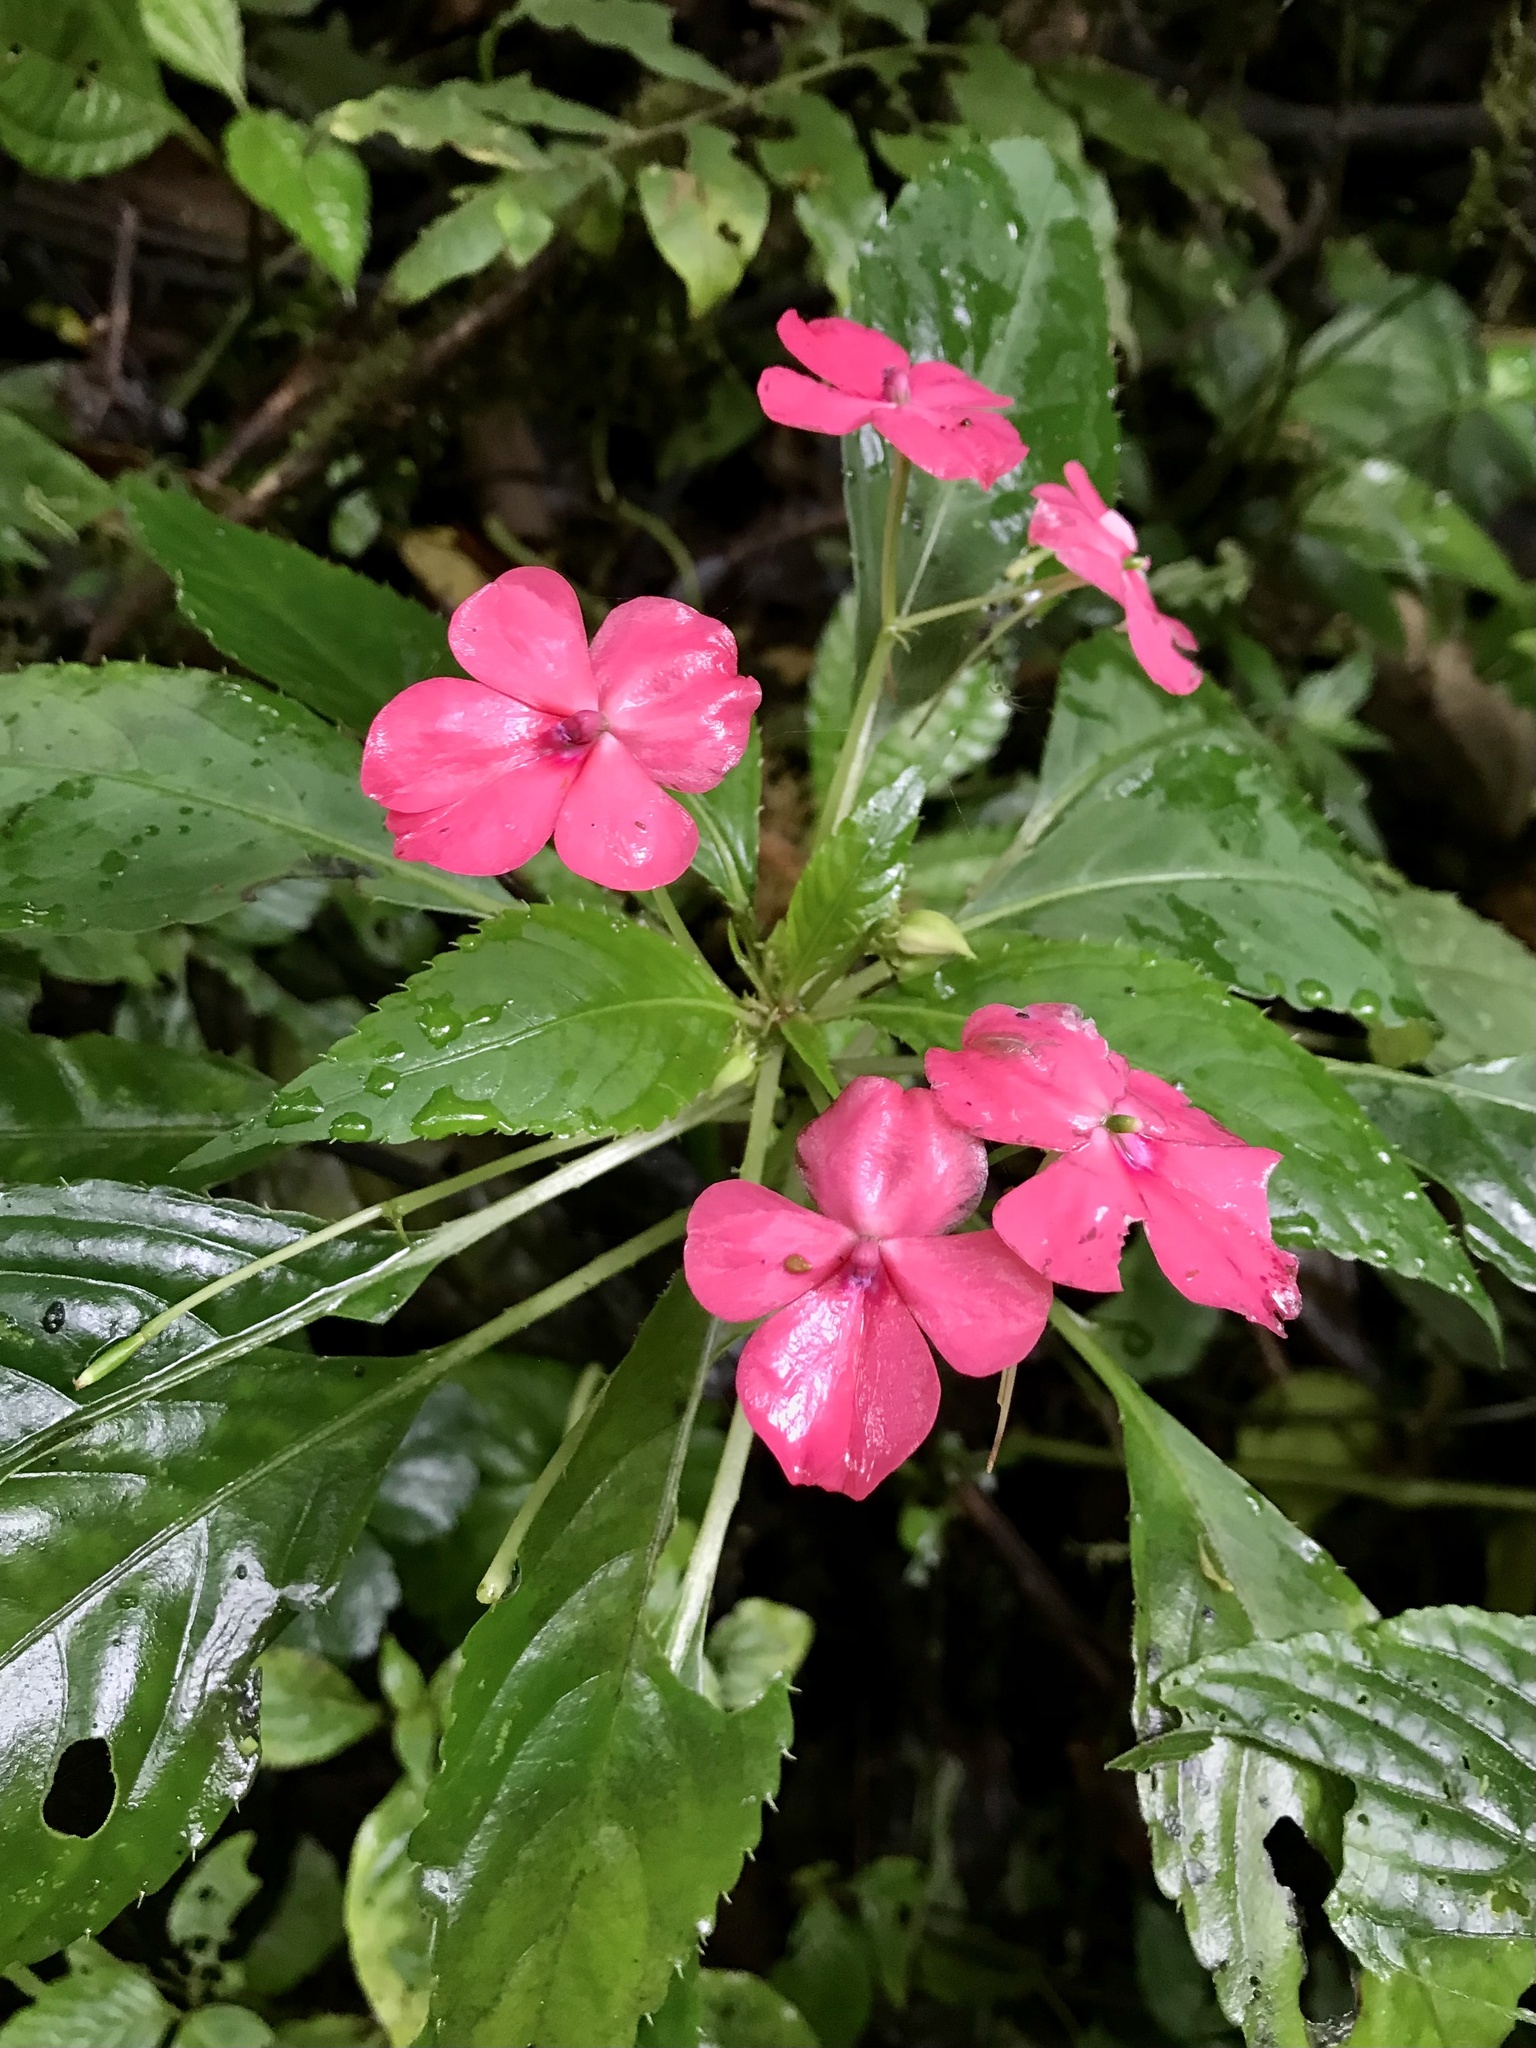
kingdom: Plantae
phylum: Tracheophyta
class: Magnoliopsida
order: Ericales
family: Balsaminaceae
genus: Impatiens
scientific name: Impatiens walleriana
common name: Buzzy lizzy
